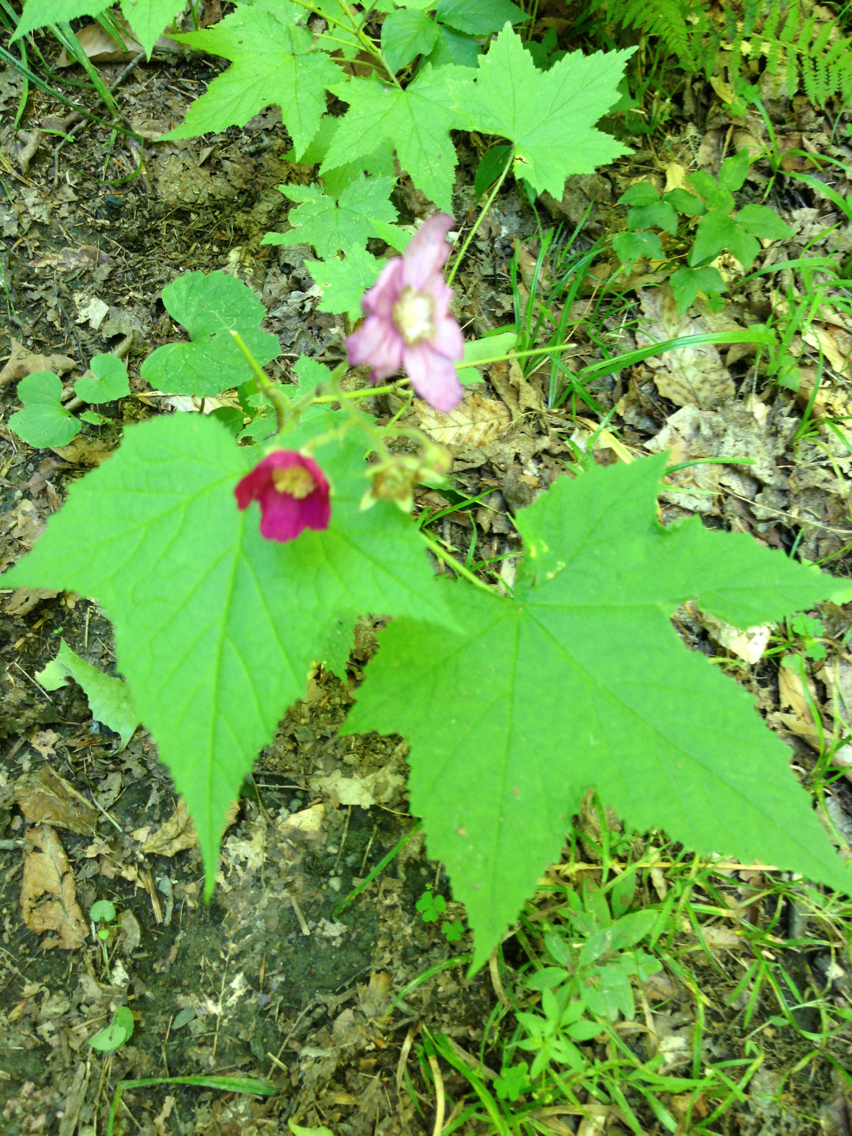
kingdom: Plantae
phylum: Tracheophyta
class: Magnoliopsida
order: Rosales
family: Rosaceae
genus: Rubus
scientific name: Rubus odoratus
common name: Purple-flowered raspberry
